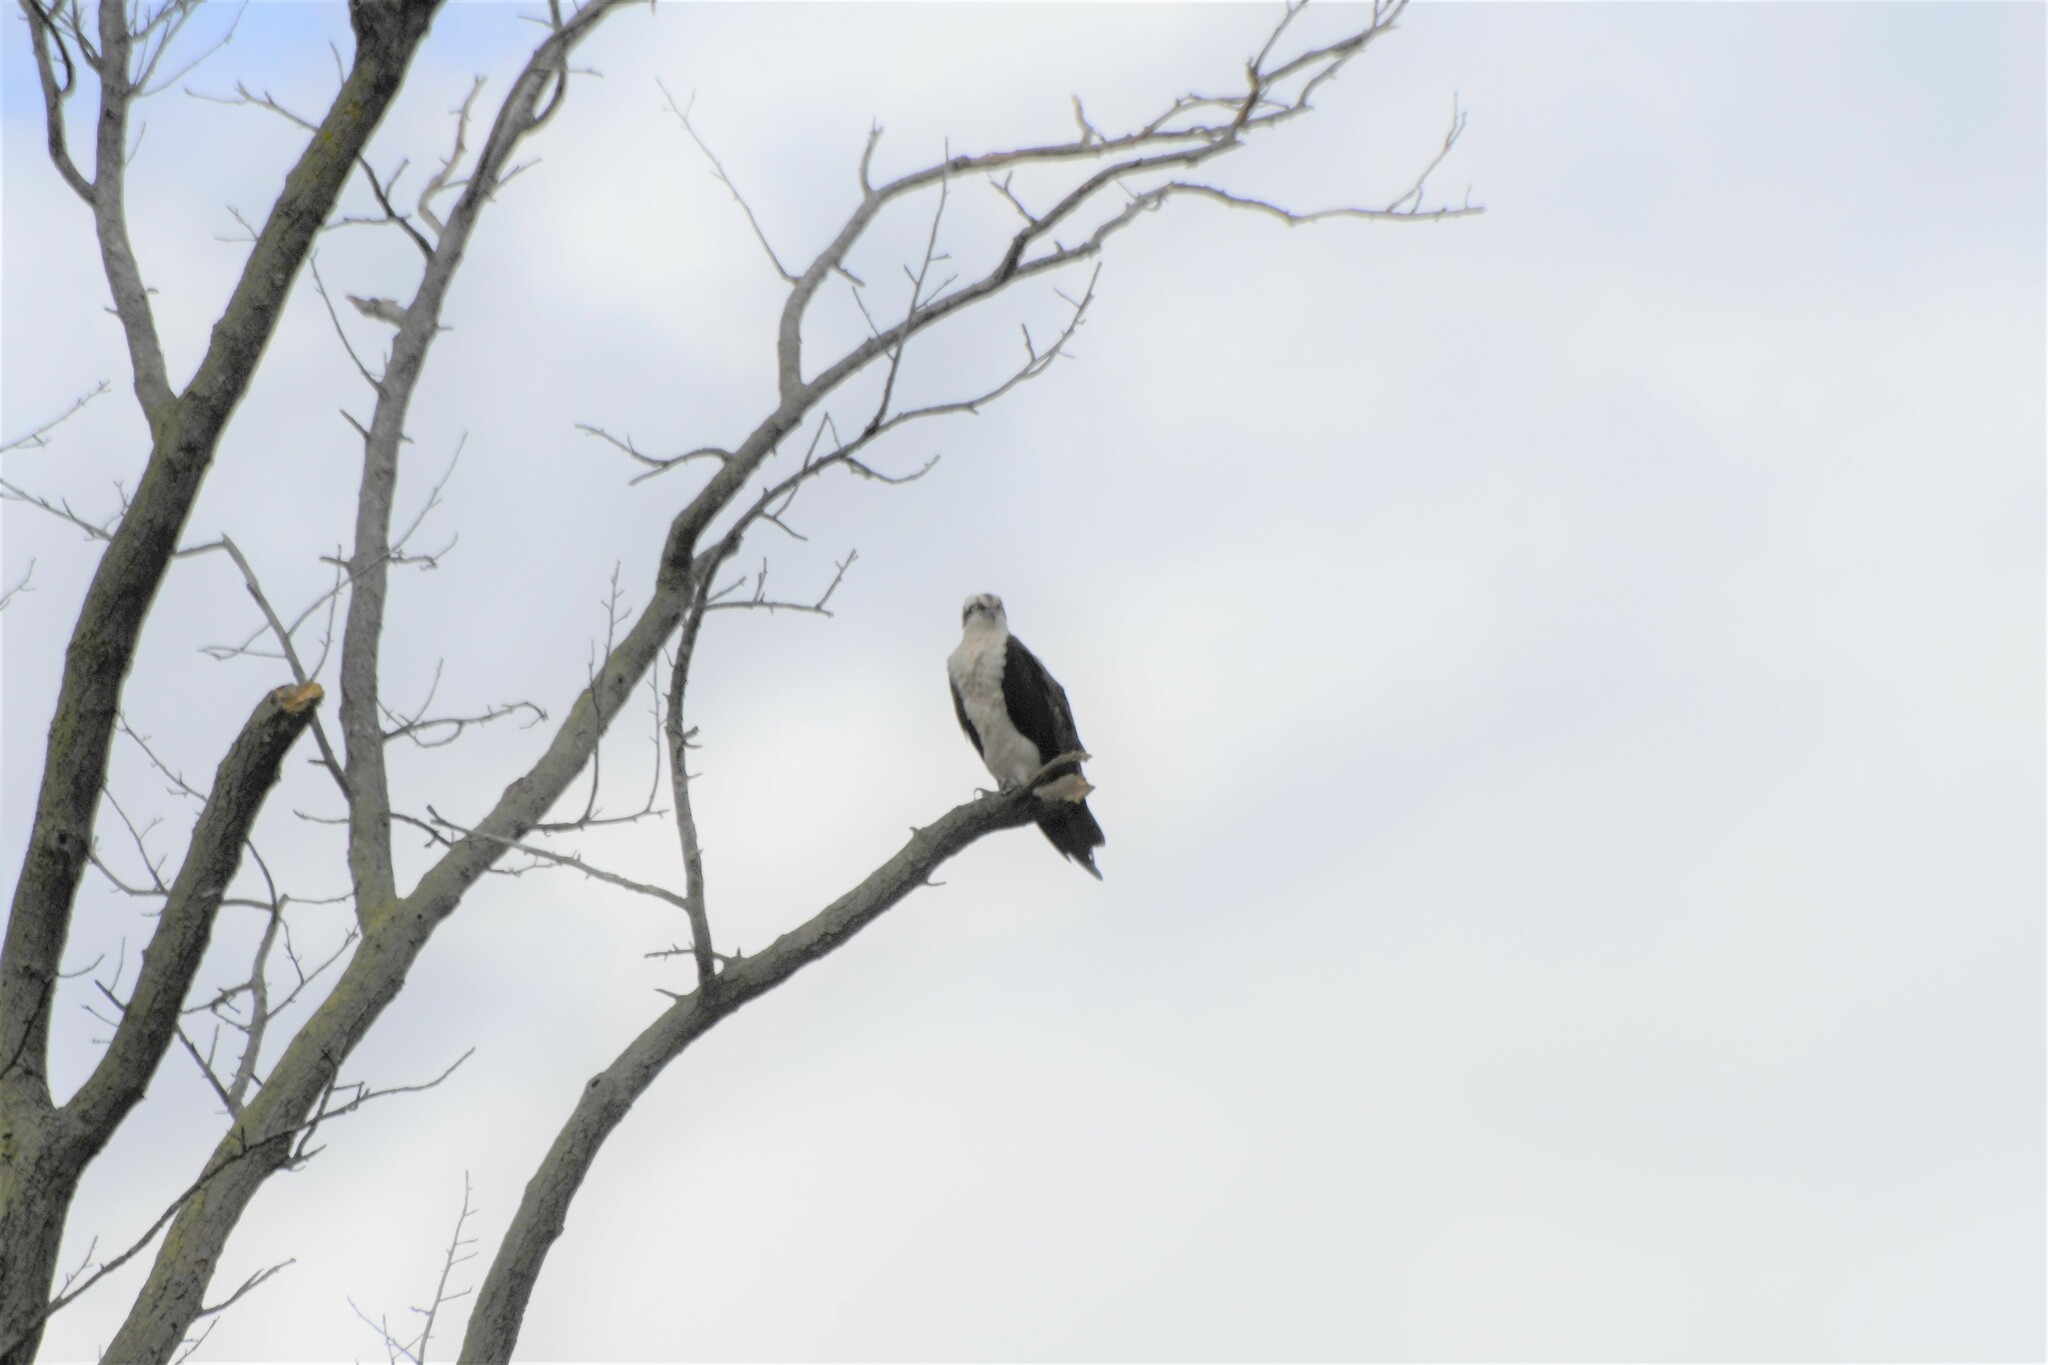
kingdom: Animalia
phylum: Chordata
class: Aves
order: Accipitriformes
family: Pandionidae
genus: Pandion
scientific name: Pandion haliaetus
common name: Osprey
